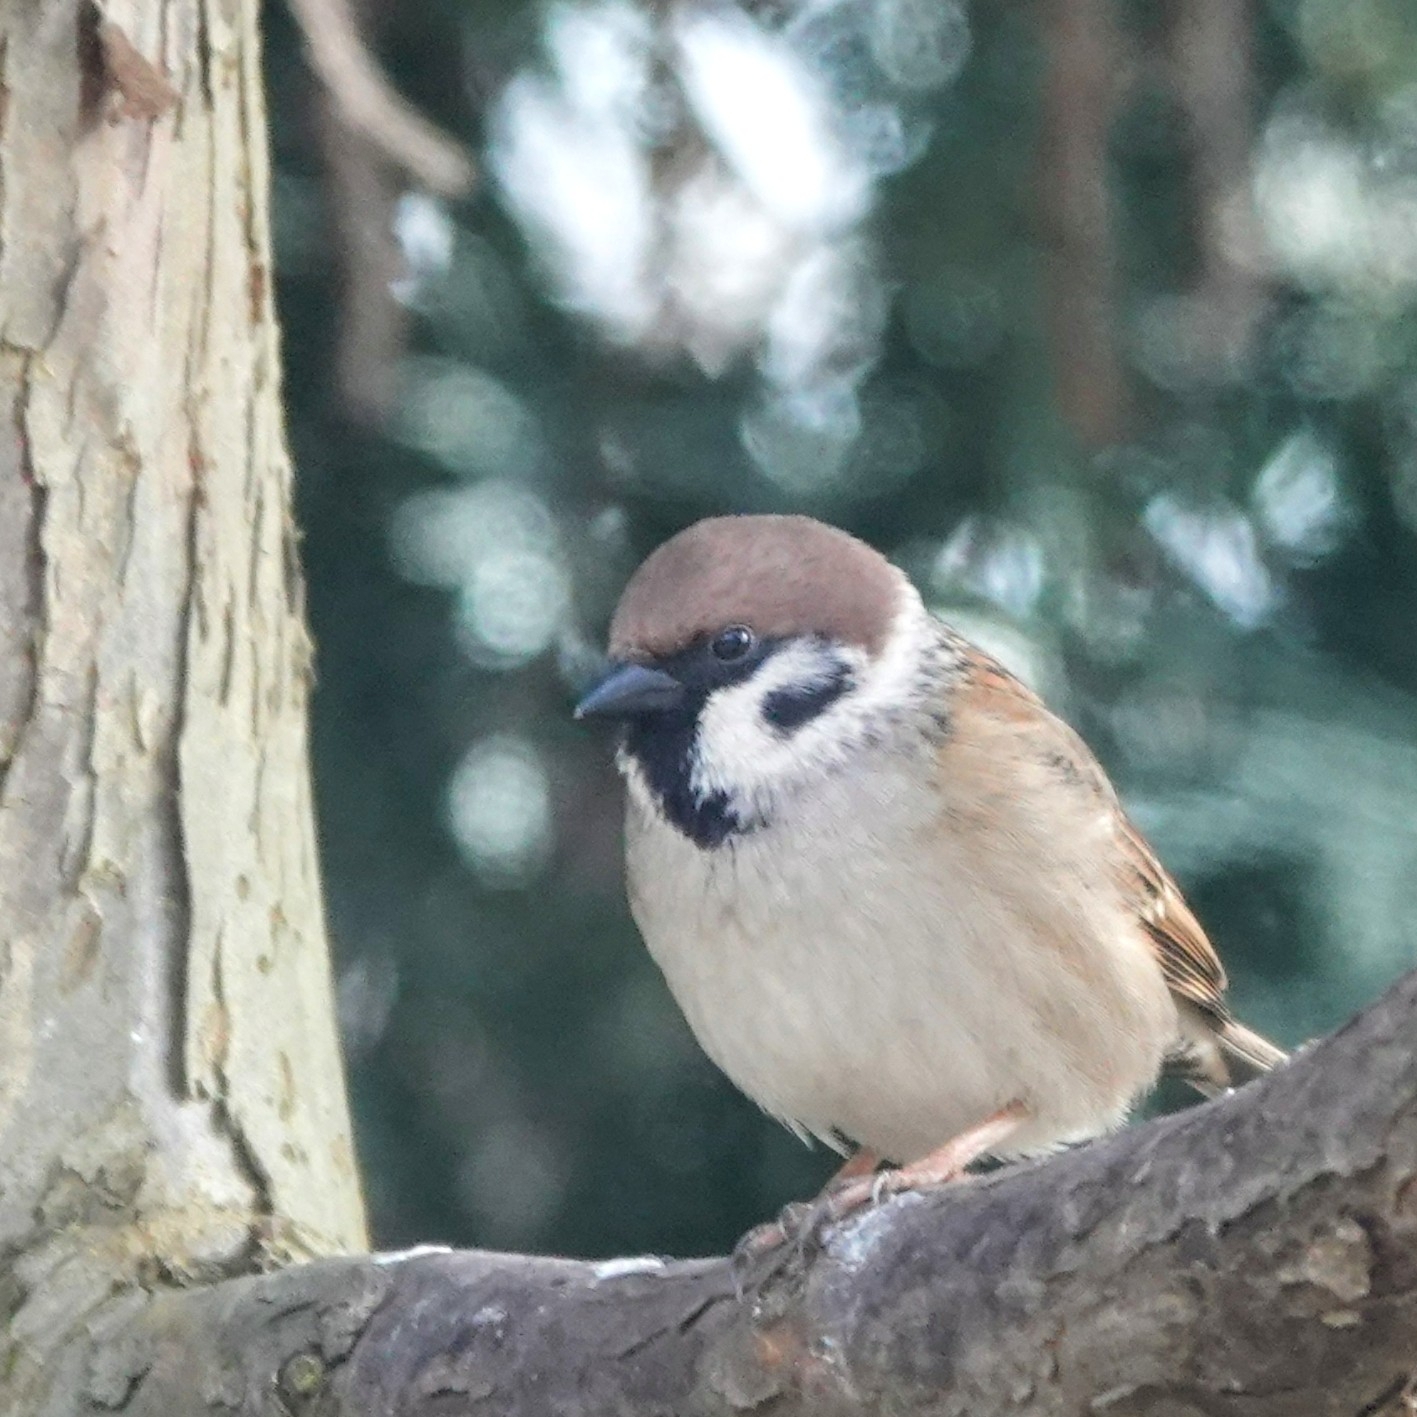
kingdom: Animalia
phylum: Chordata
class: Aves
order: Passeriformes
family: Passeridae
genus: Passer
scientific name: Passer montanus
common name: Eurasian tree sparrow
